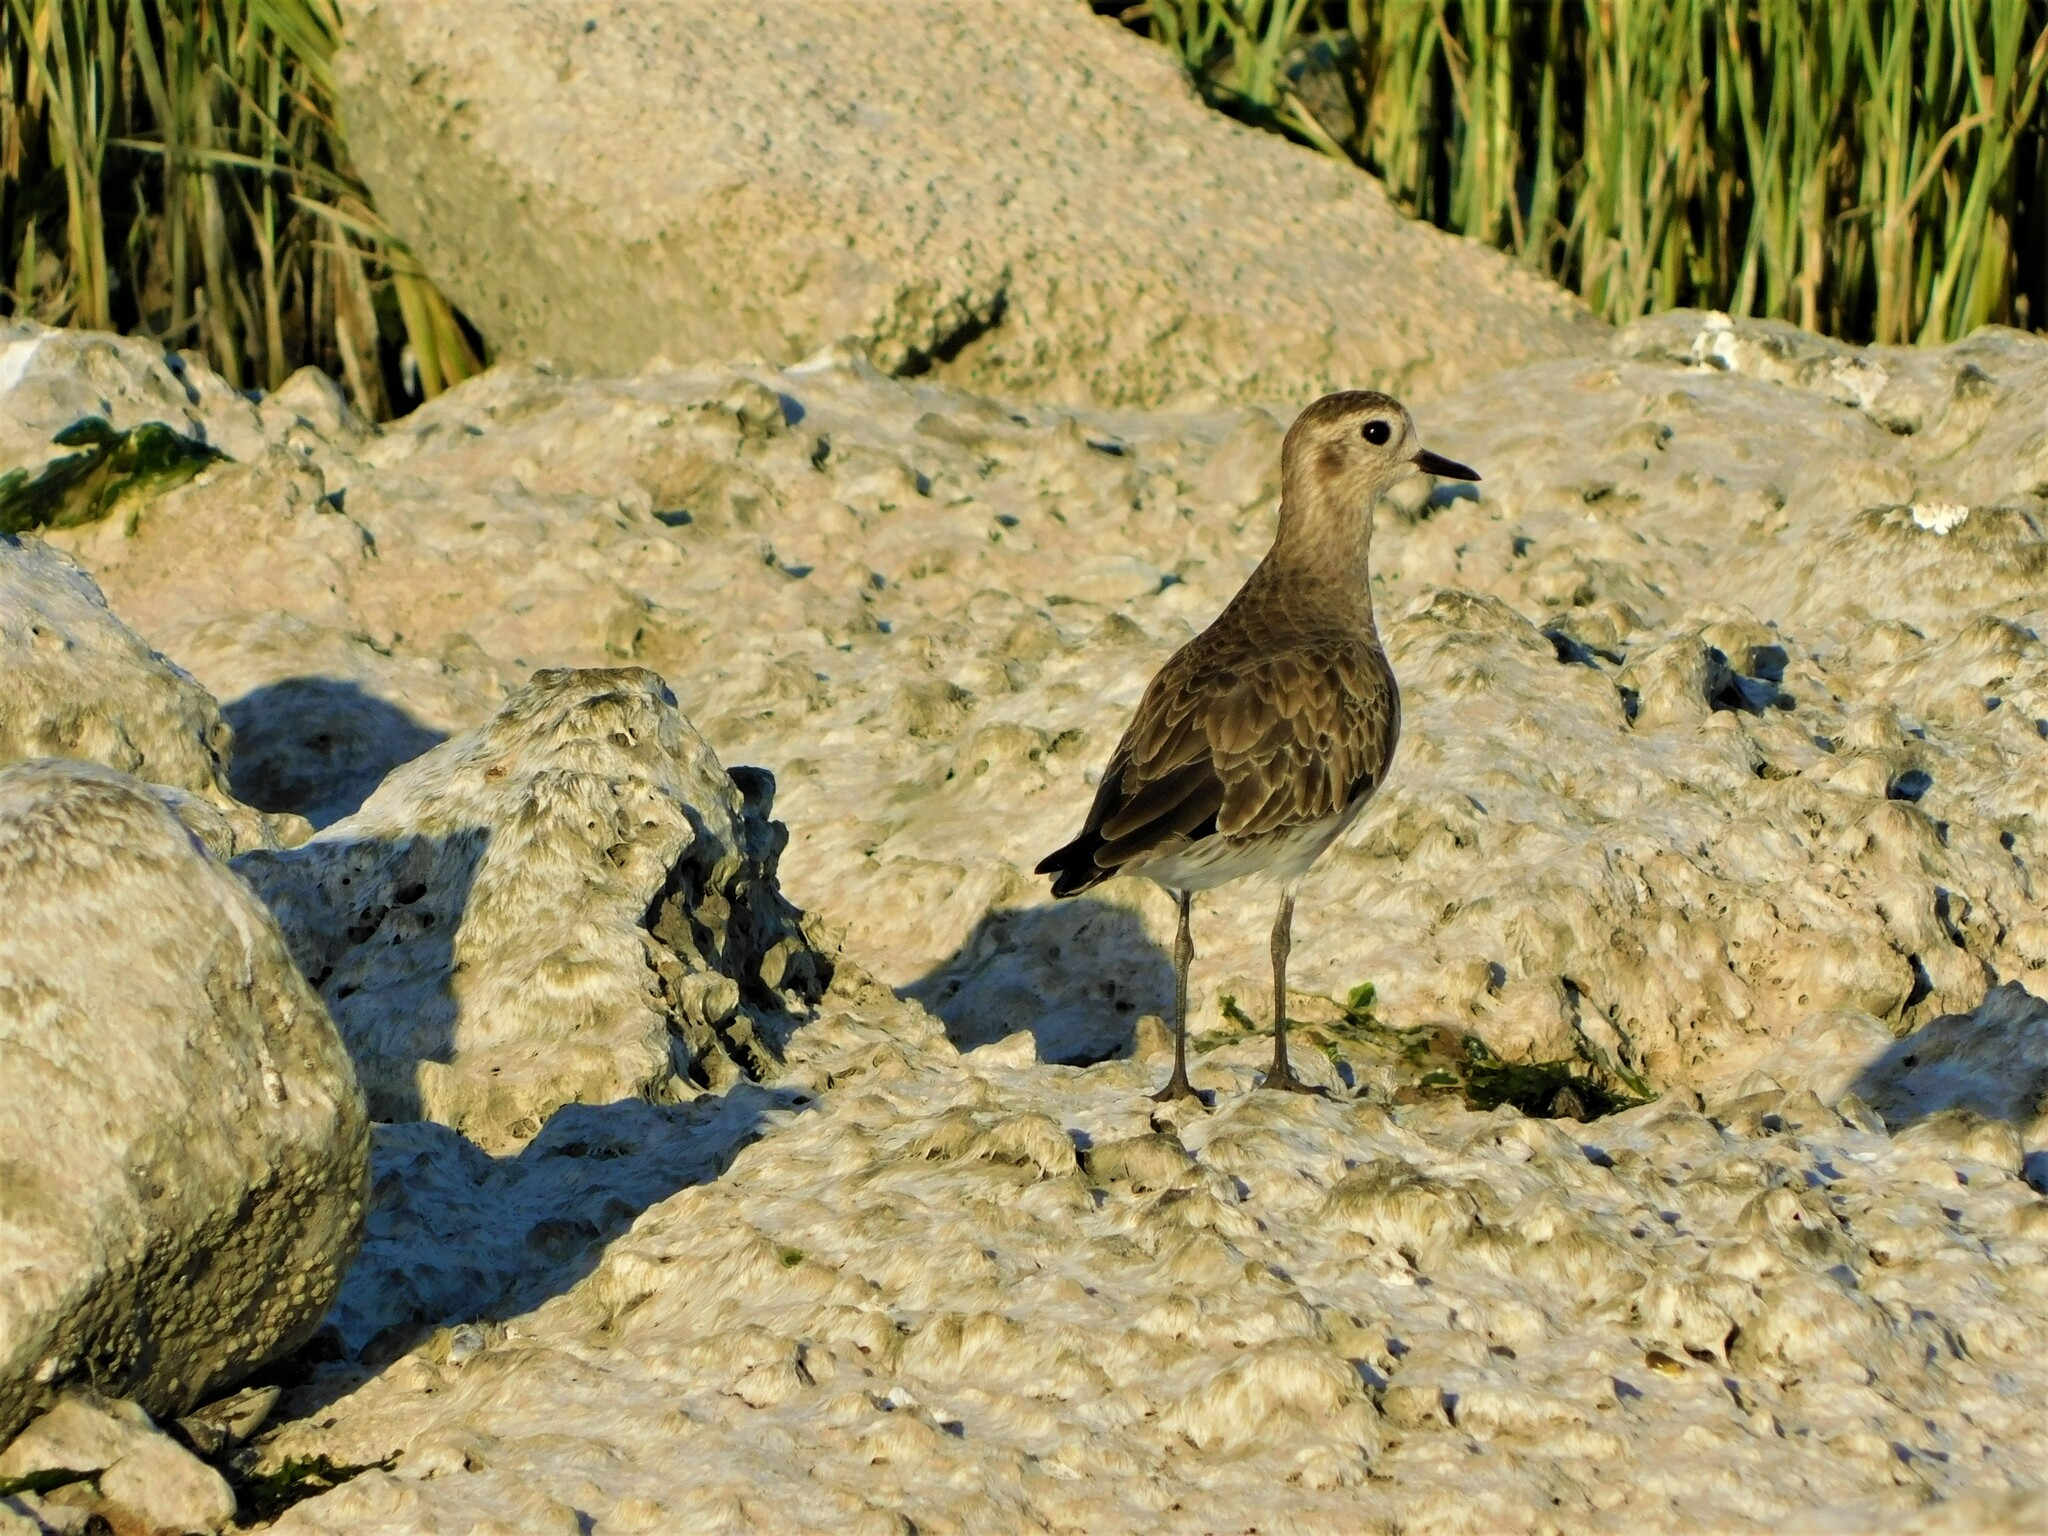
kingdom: Animalia
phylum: Chordata
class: Aves
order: Charadriiformes
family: Charadriidae
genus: Pluvialis
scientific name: Pluvialis dominica
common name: American golden plover
